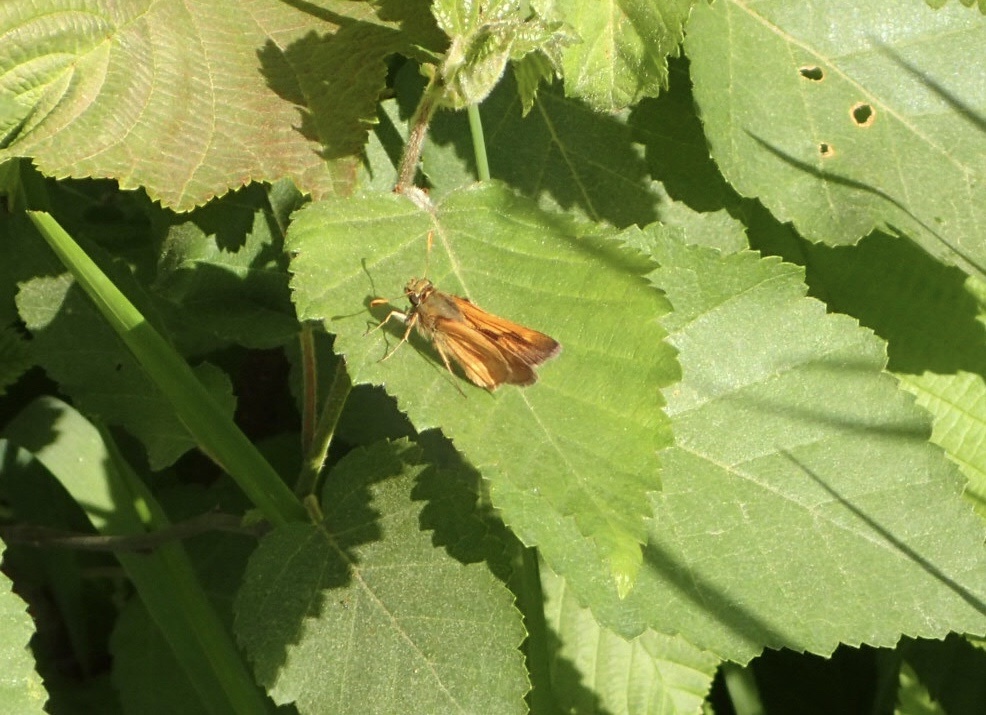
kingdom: Animalia
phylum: Arthropoda
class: Insecta
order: Lepidoptera
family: Hesperiidae
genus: Polites
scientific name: Polites mystic
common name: Long dash
